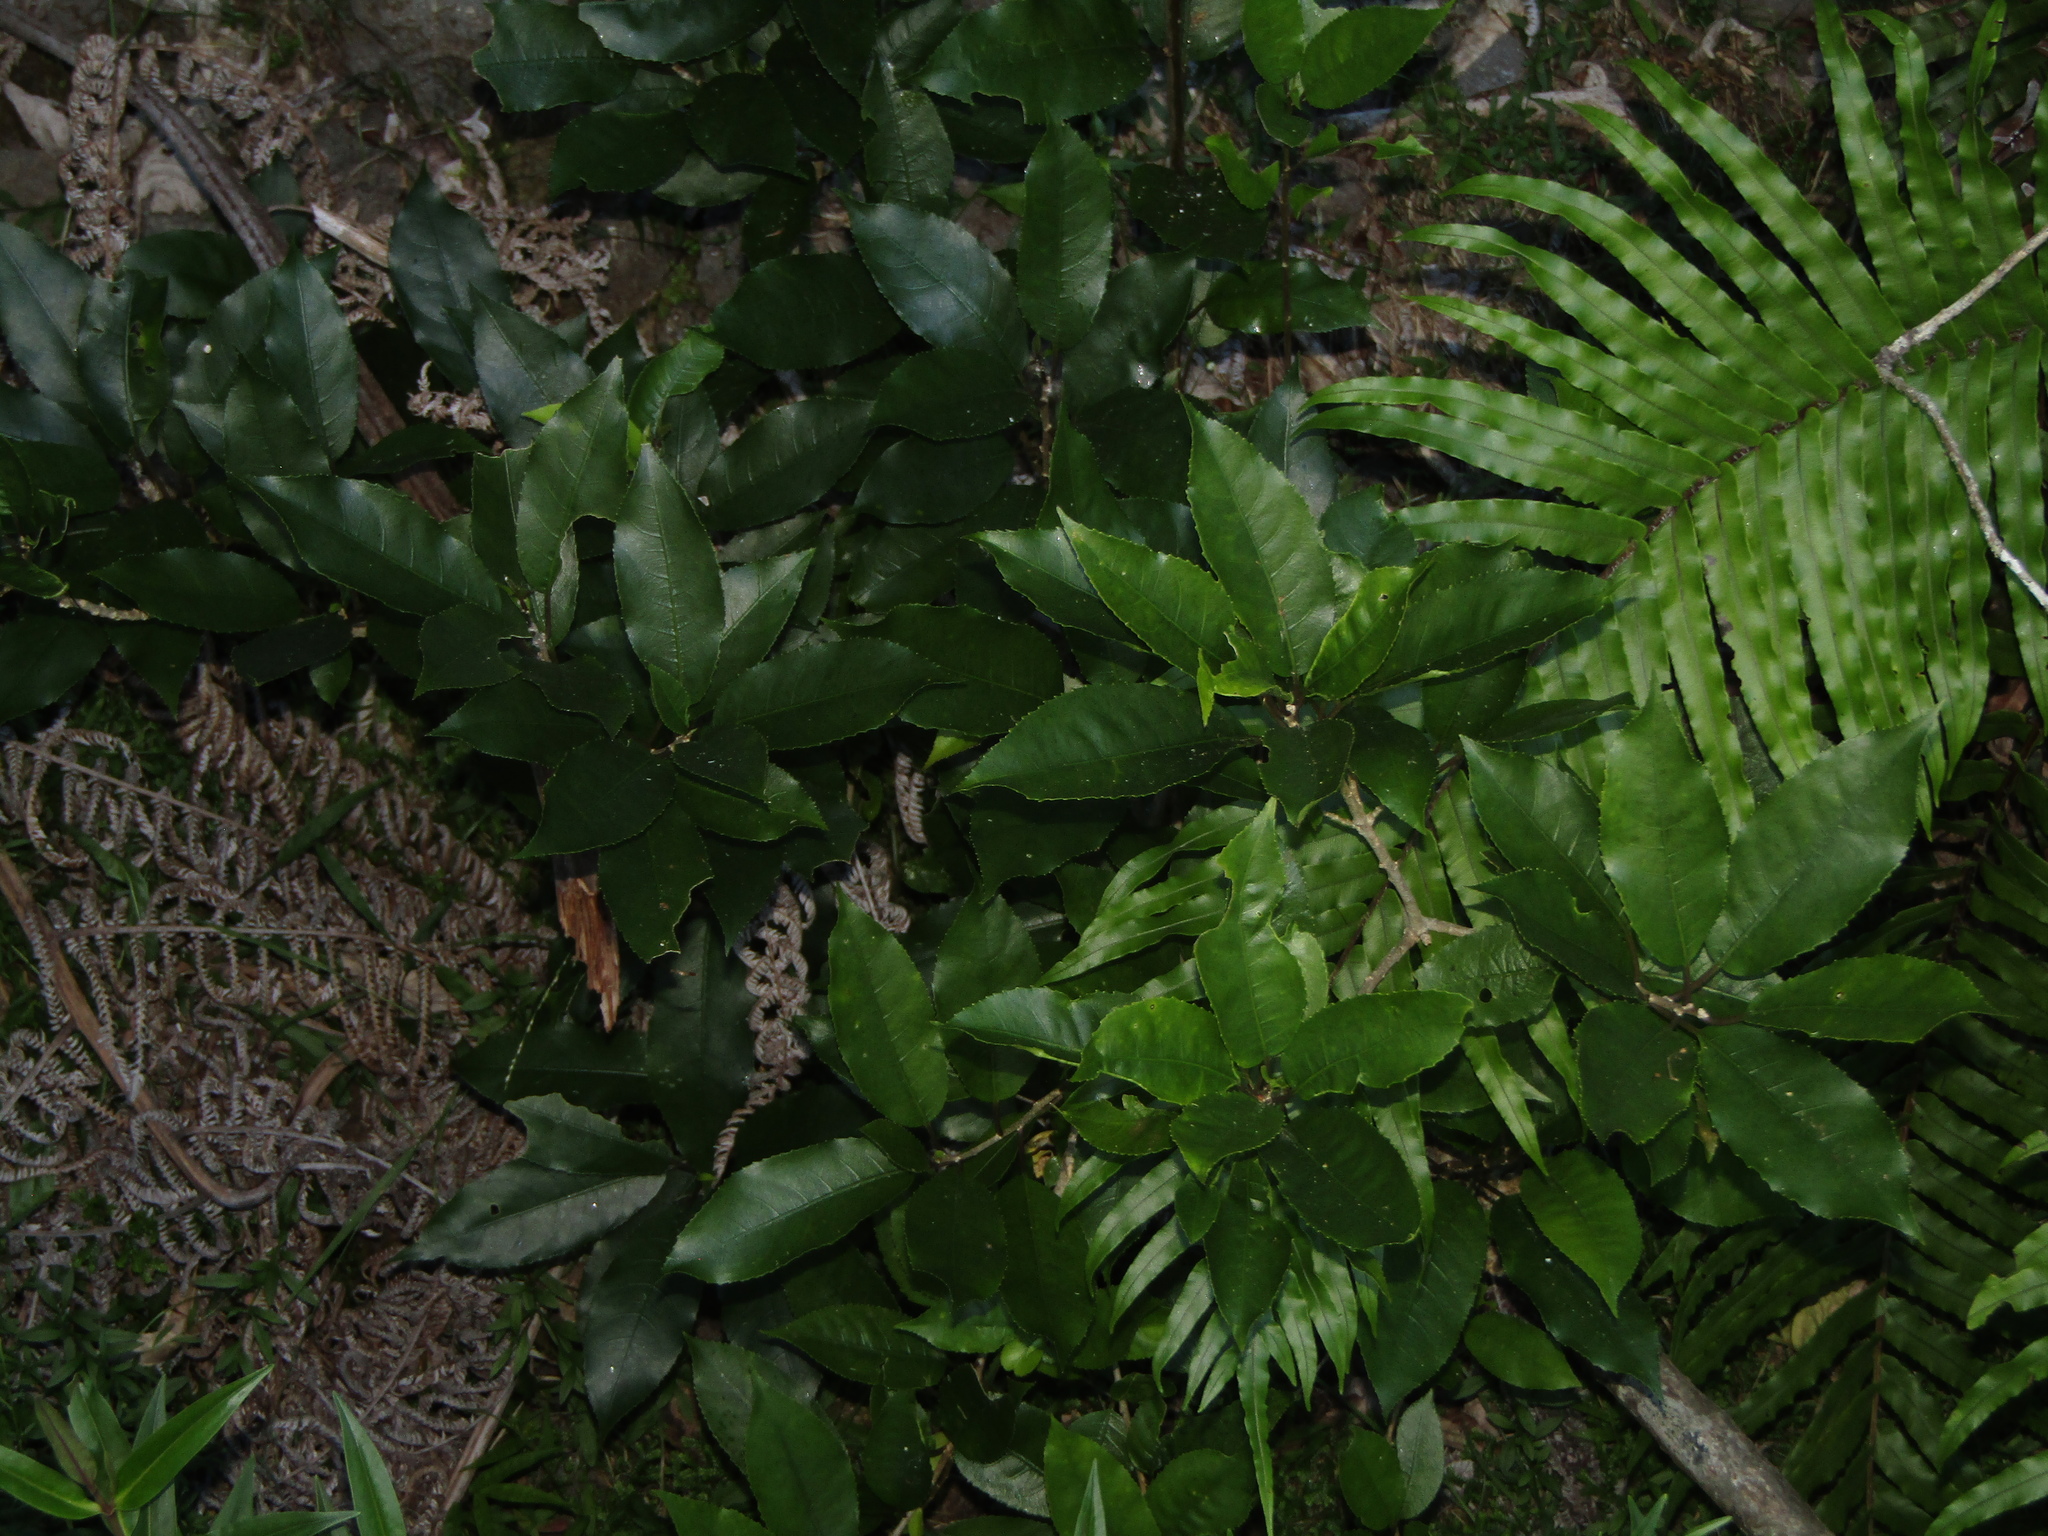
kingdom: Plantae
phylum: Tracheophyta
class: Magnoliopsida
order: Malpighiales
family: Violaceae
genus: Melicytus
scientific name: Melicytus ramiflorus
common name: Mahoe
